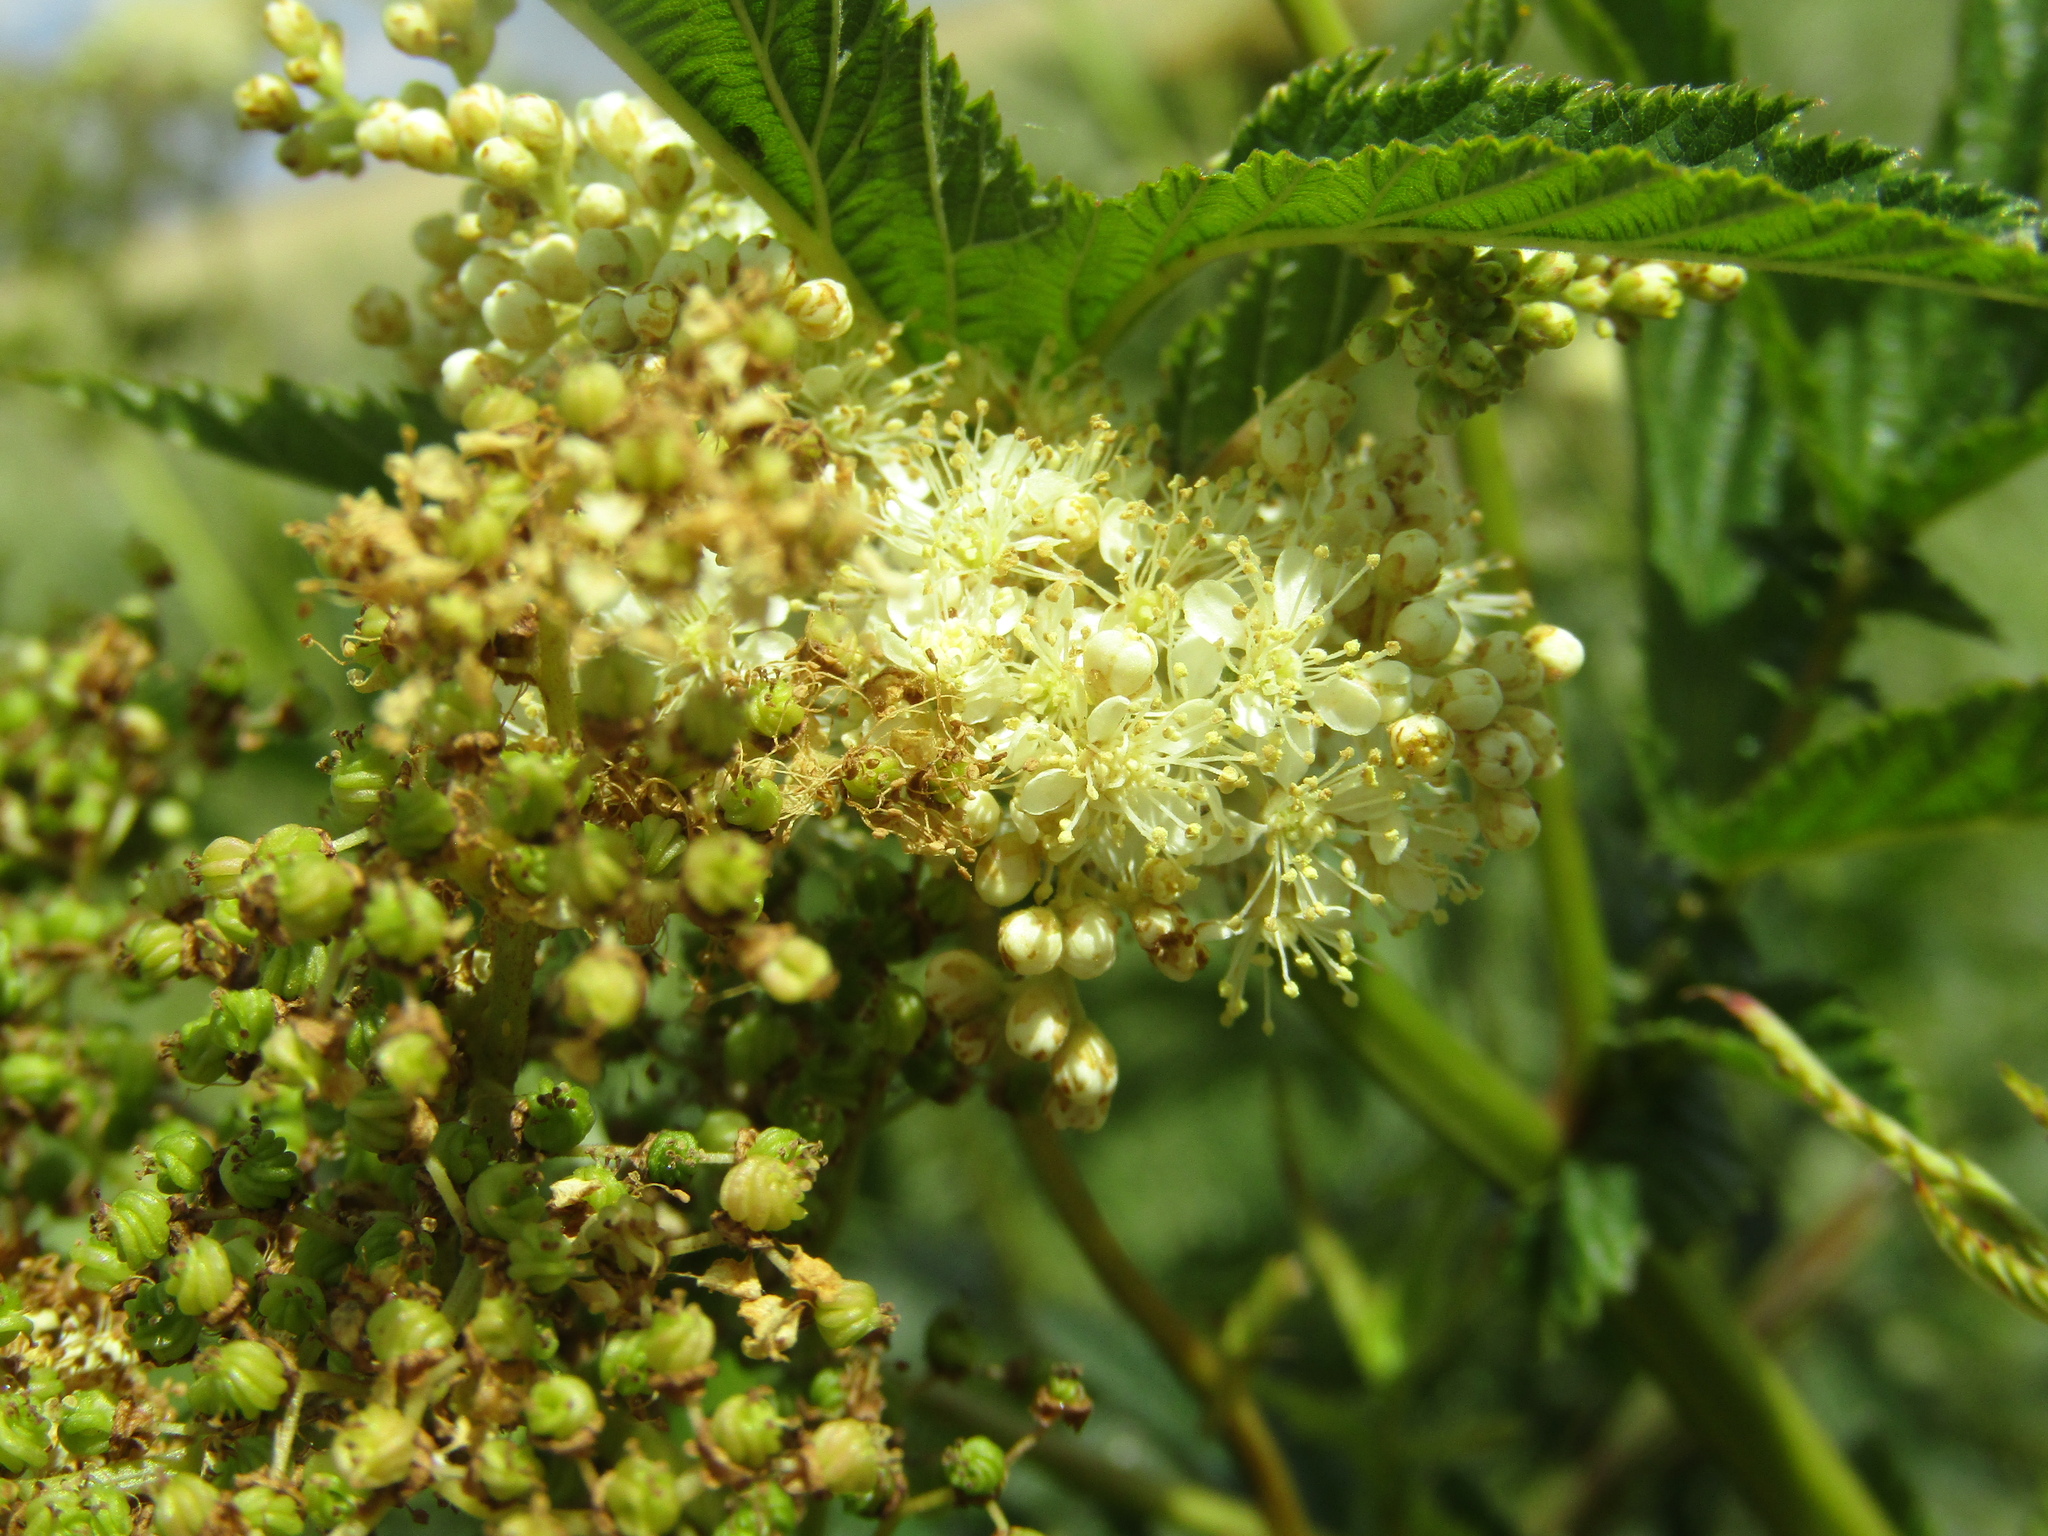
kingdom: Plantae
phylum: Tracheophyta
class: Magnoliopsida
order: Rosales
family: Rosaceae
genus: Filipendula
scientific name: Filipendula ulmaria
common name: Meadowsweet
